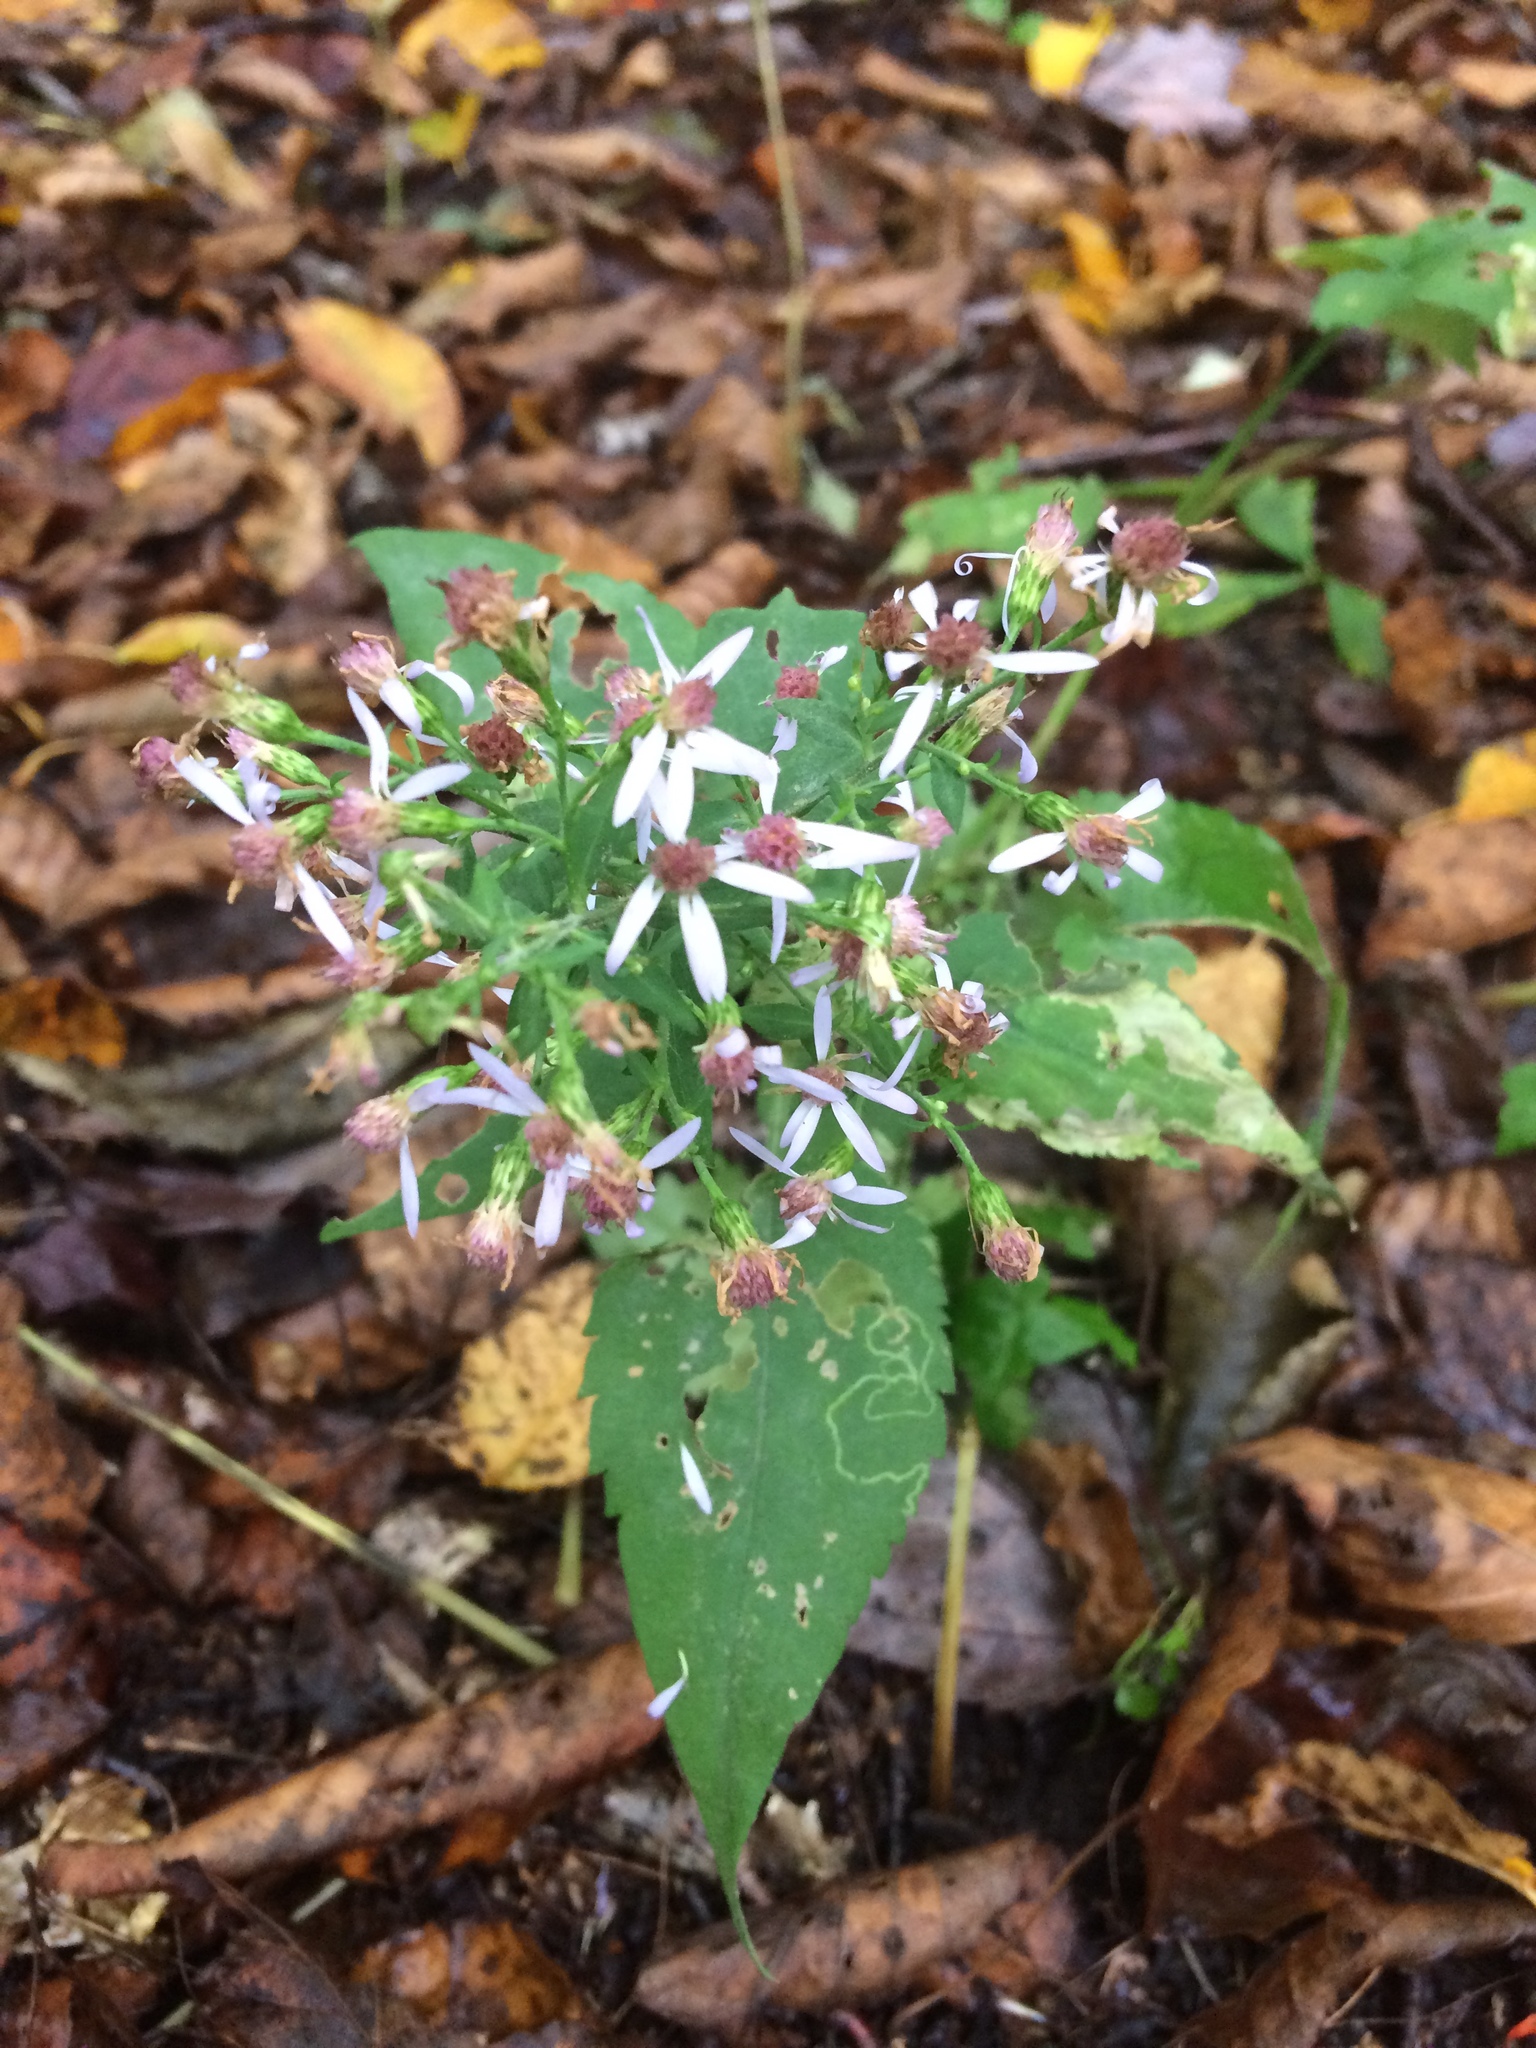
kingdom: Plantae
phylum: Tracheophyta
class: Magnoliopsida
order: Asterales
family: Asteraceae
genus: Eurybia
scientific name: Eurybia divaricata
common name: White wood aster
